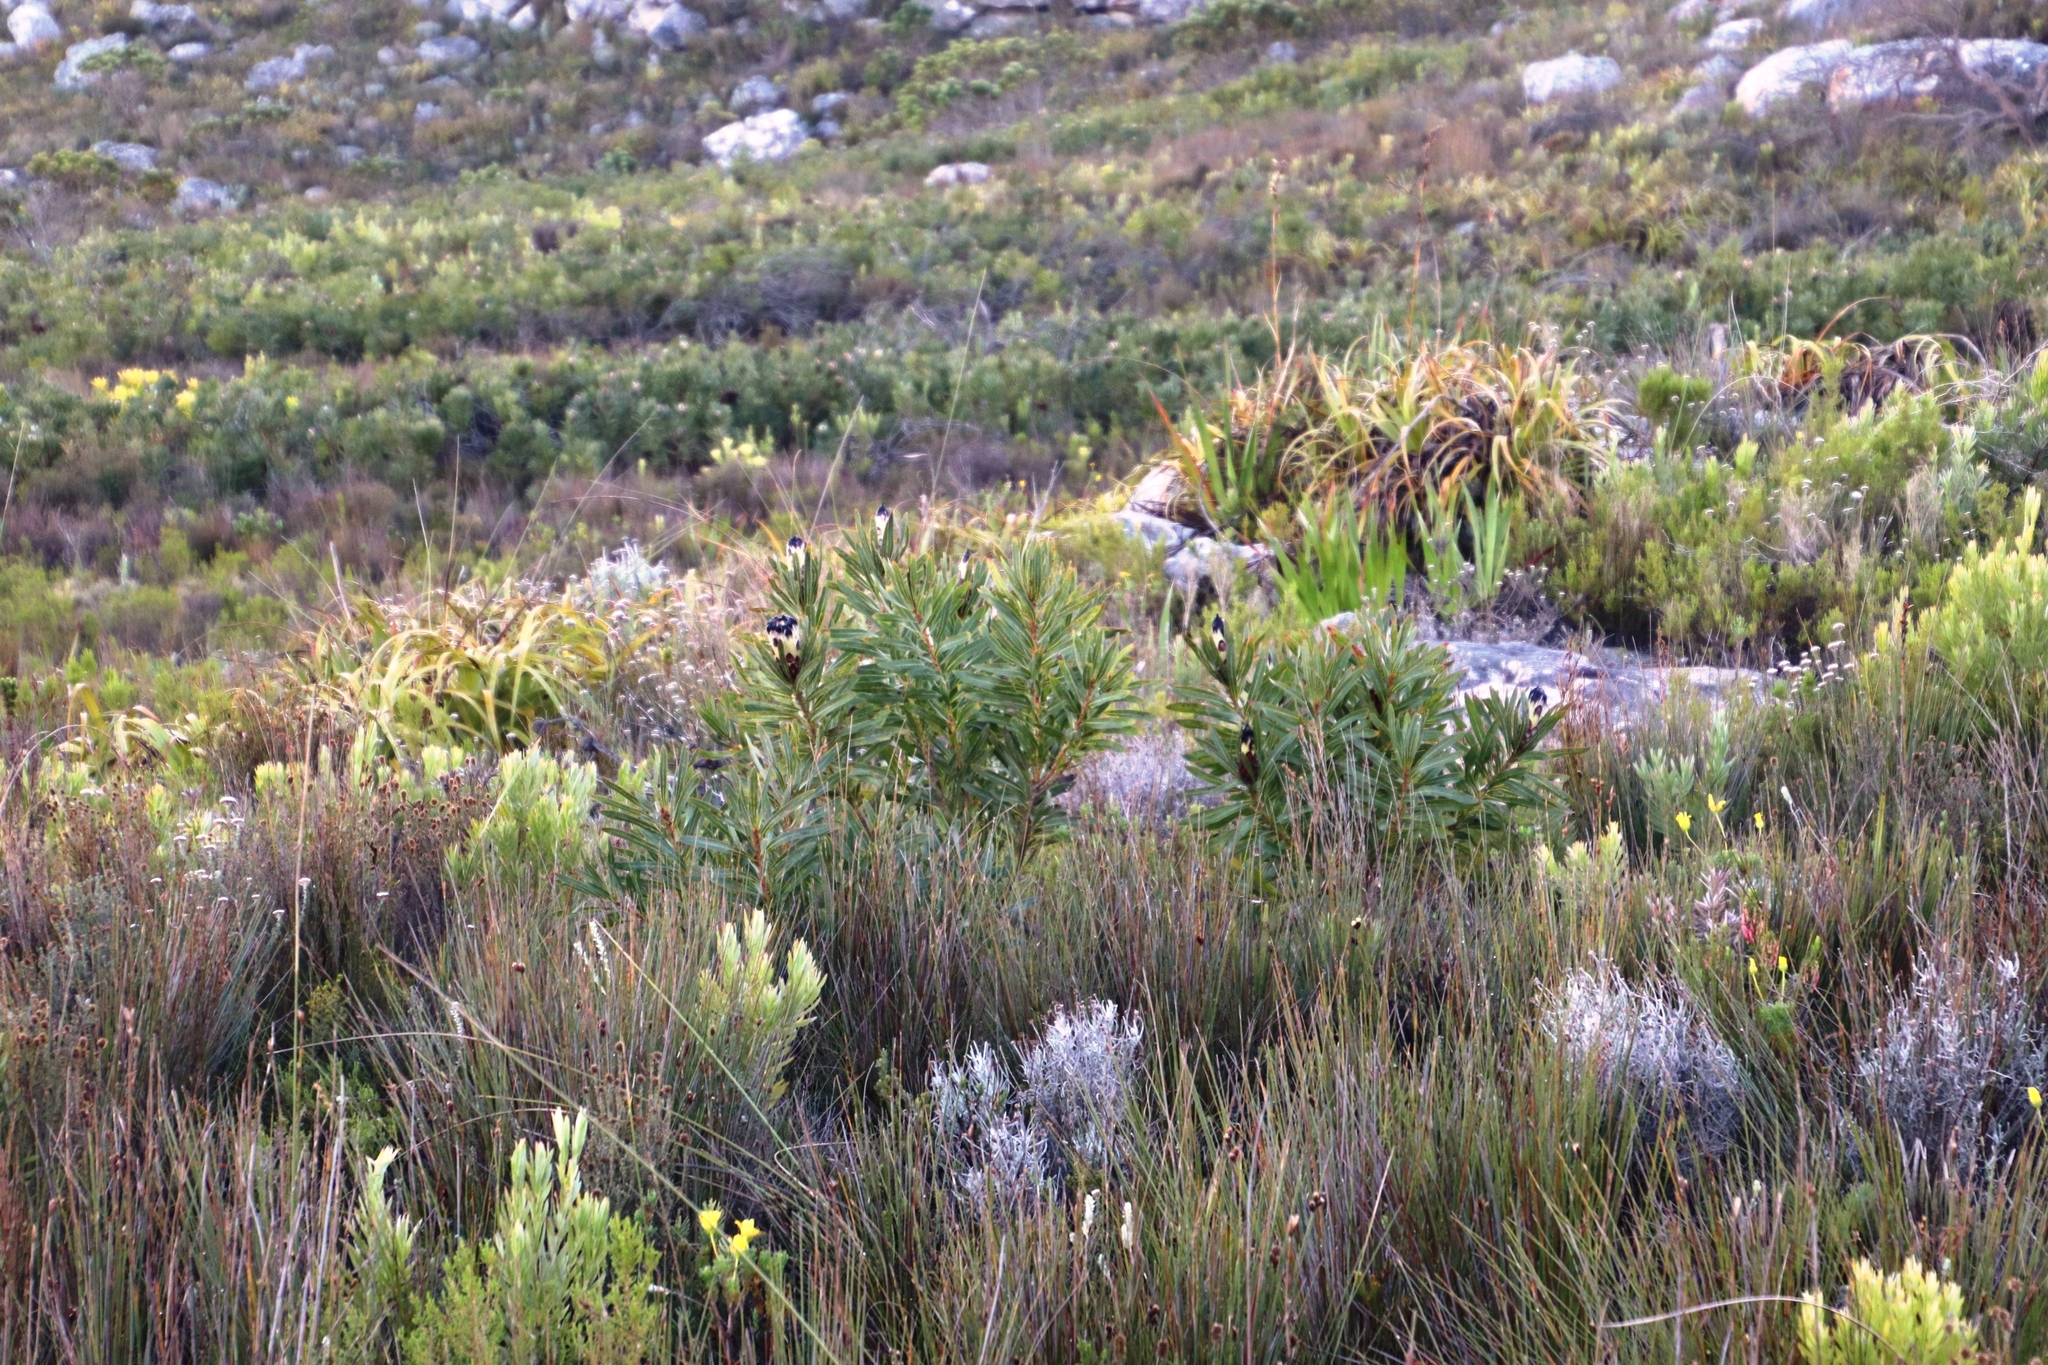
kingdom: Plantae
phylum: Tracheophyta
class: Magnoliopsida
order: Proteales
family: Proteaceae
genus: Protea
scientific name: Protea lepidocarpodendron
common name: Black-bearded protea
